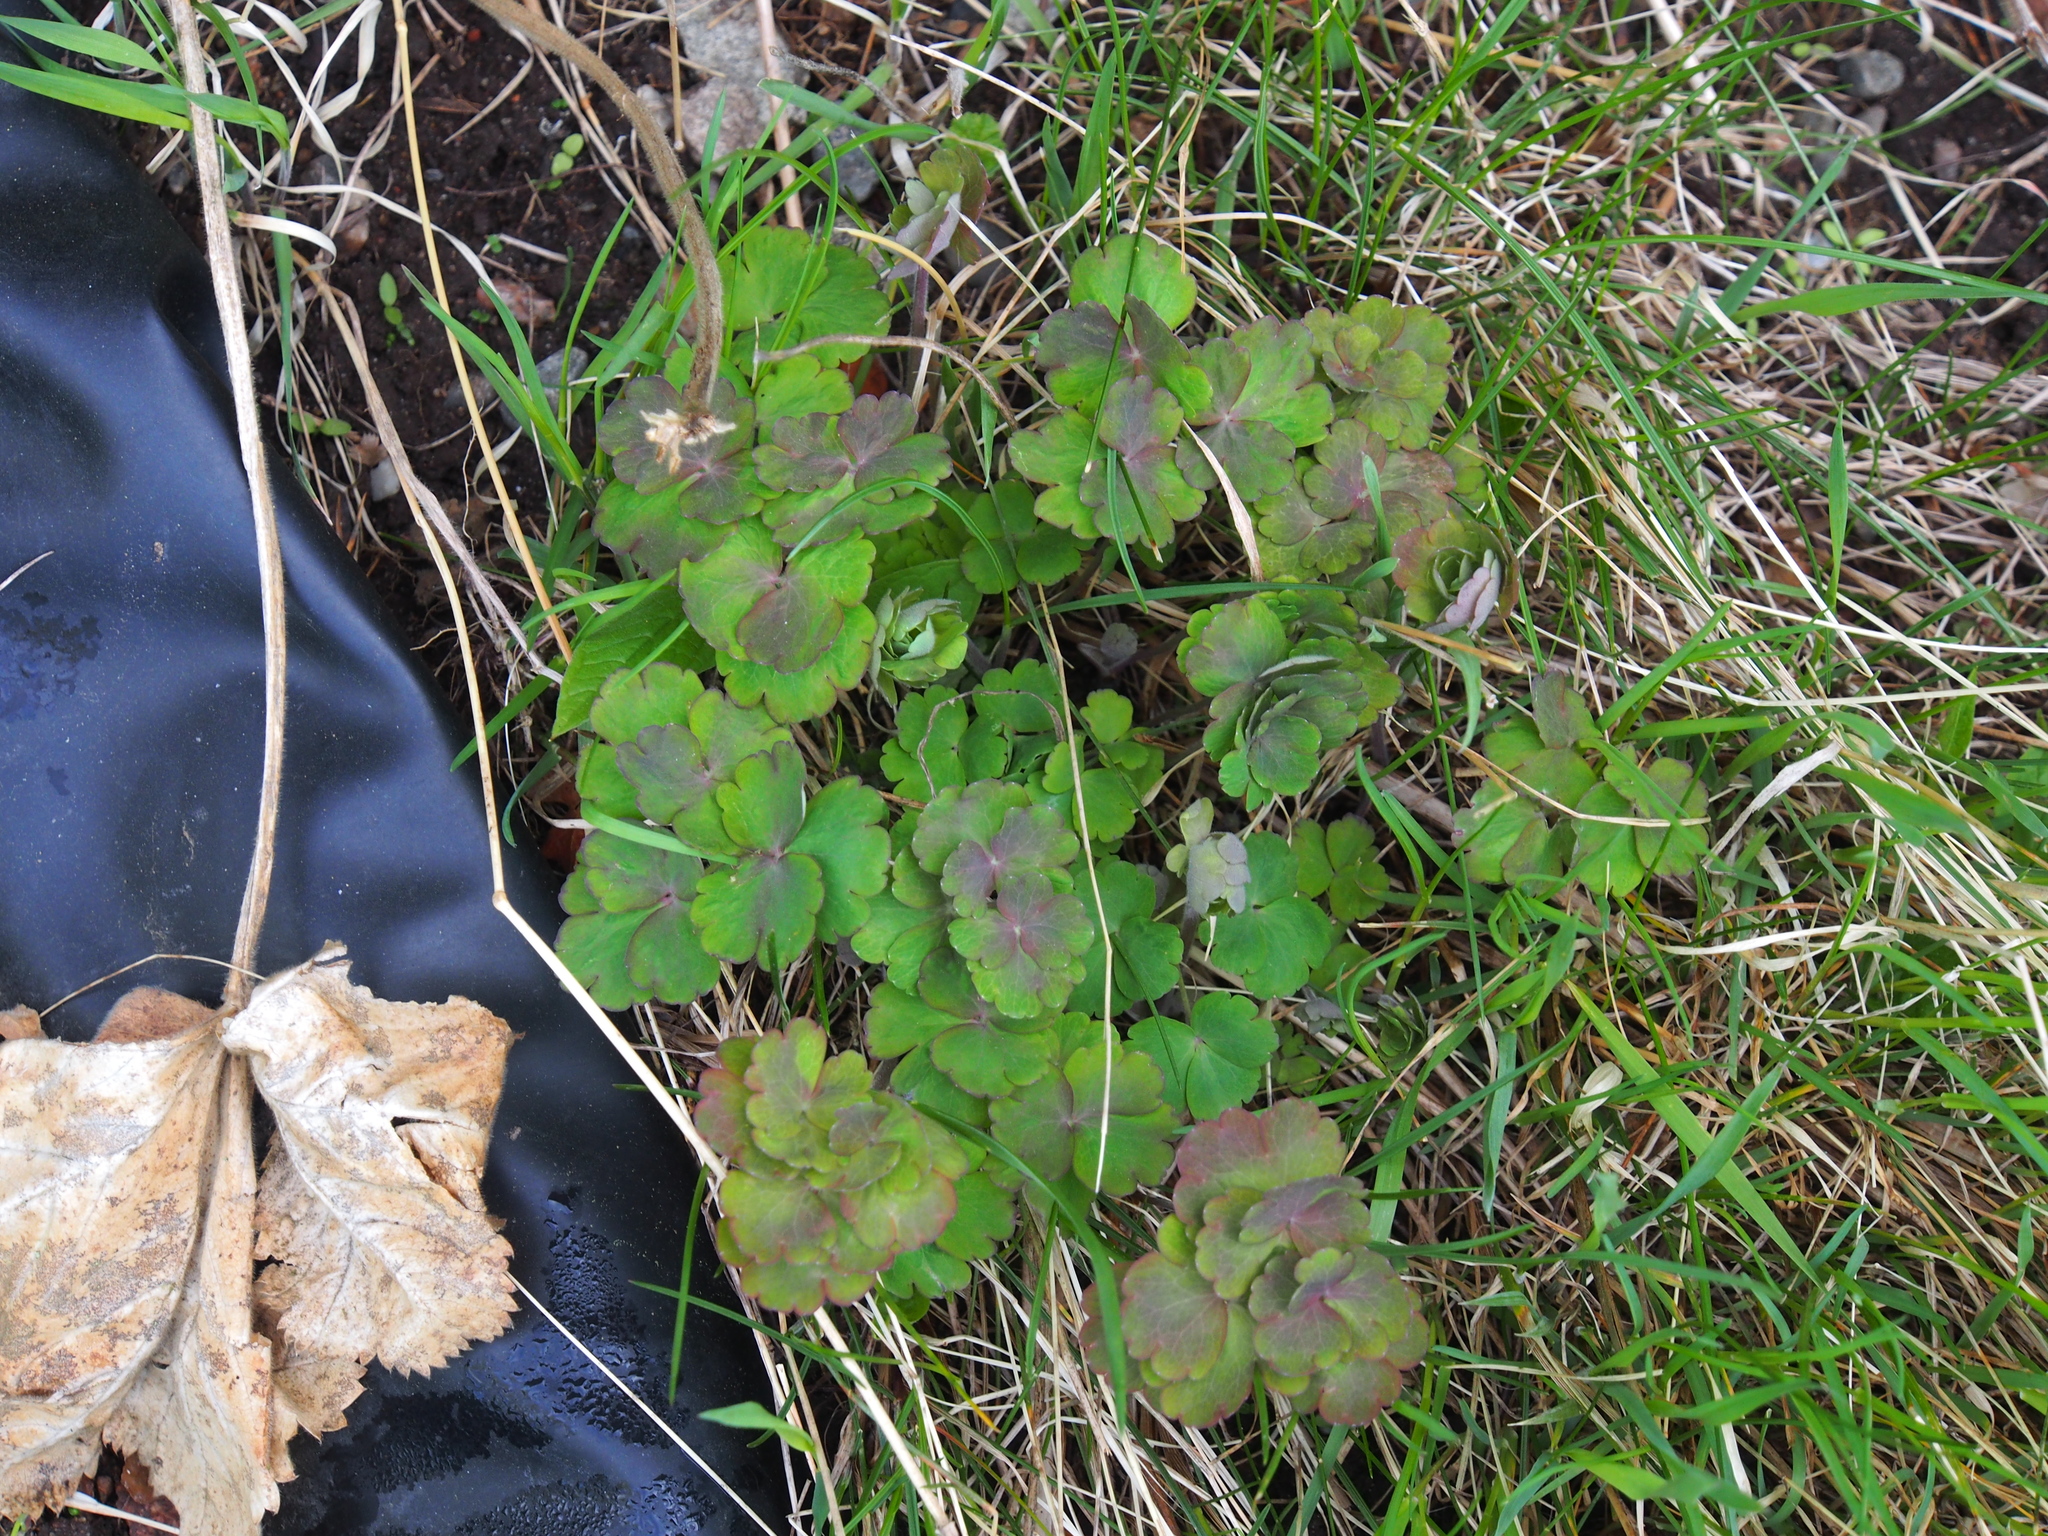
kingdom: Plantae
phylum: Tracheophyta
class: Magnoliopsida
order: Ranunculales
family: Ranunculaceae
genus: Aquilegia
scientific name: Aquilegia vulgaris
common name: Columbine
